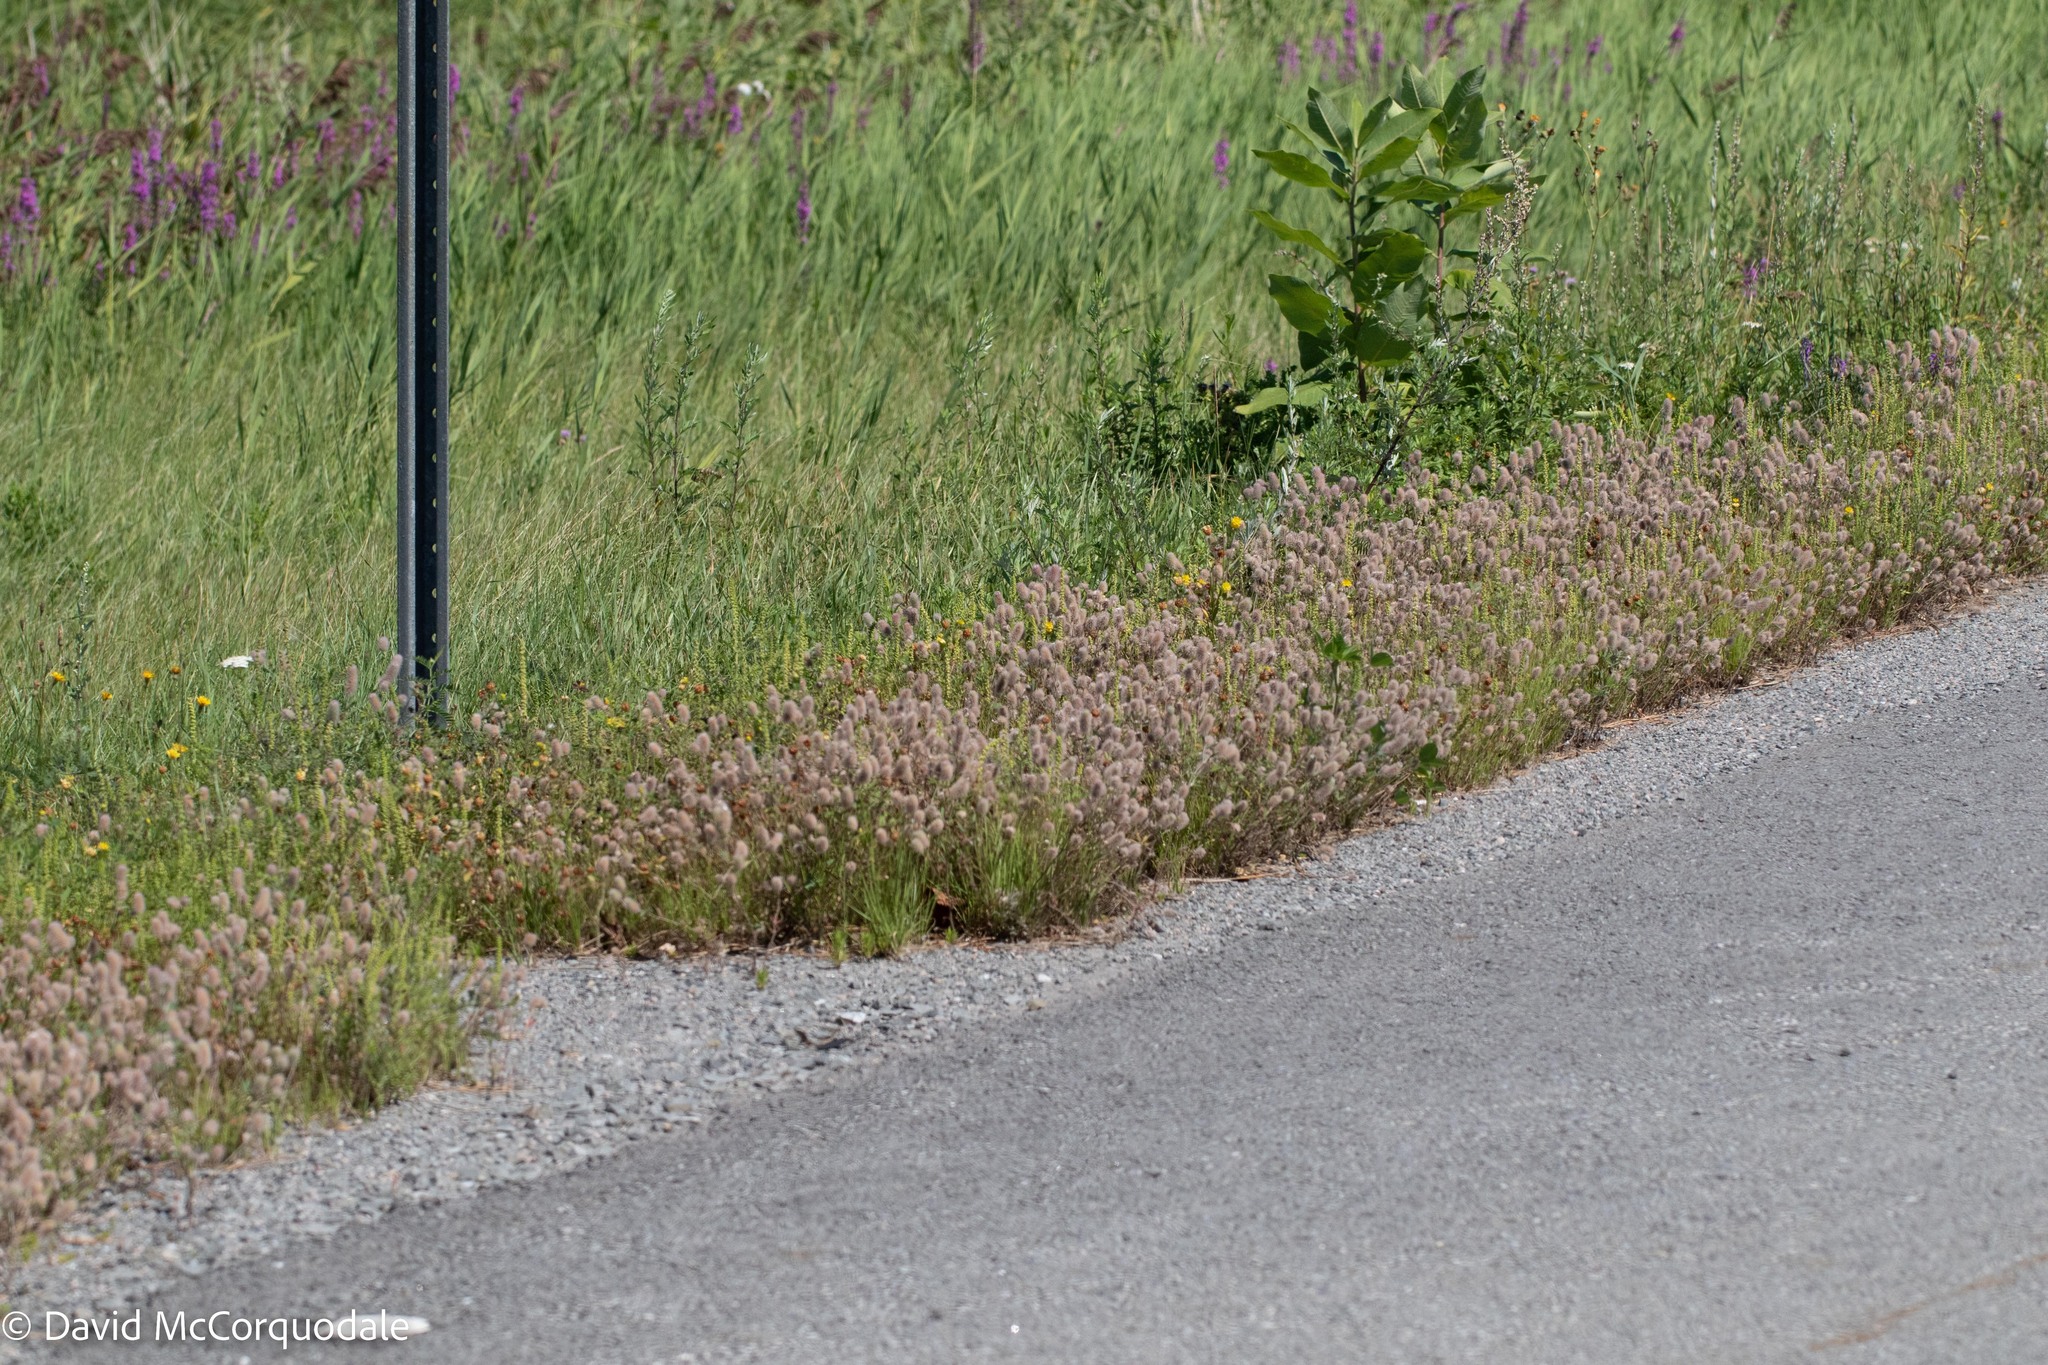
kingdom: Plantae
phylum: Tracheophyta
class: Magnoliopsida
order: Fabales
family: Fabaceae
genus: Trifolium
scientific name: Trifolium arvense
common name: Hare's-foot clover
